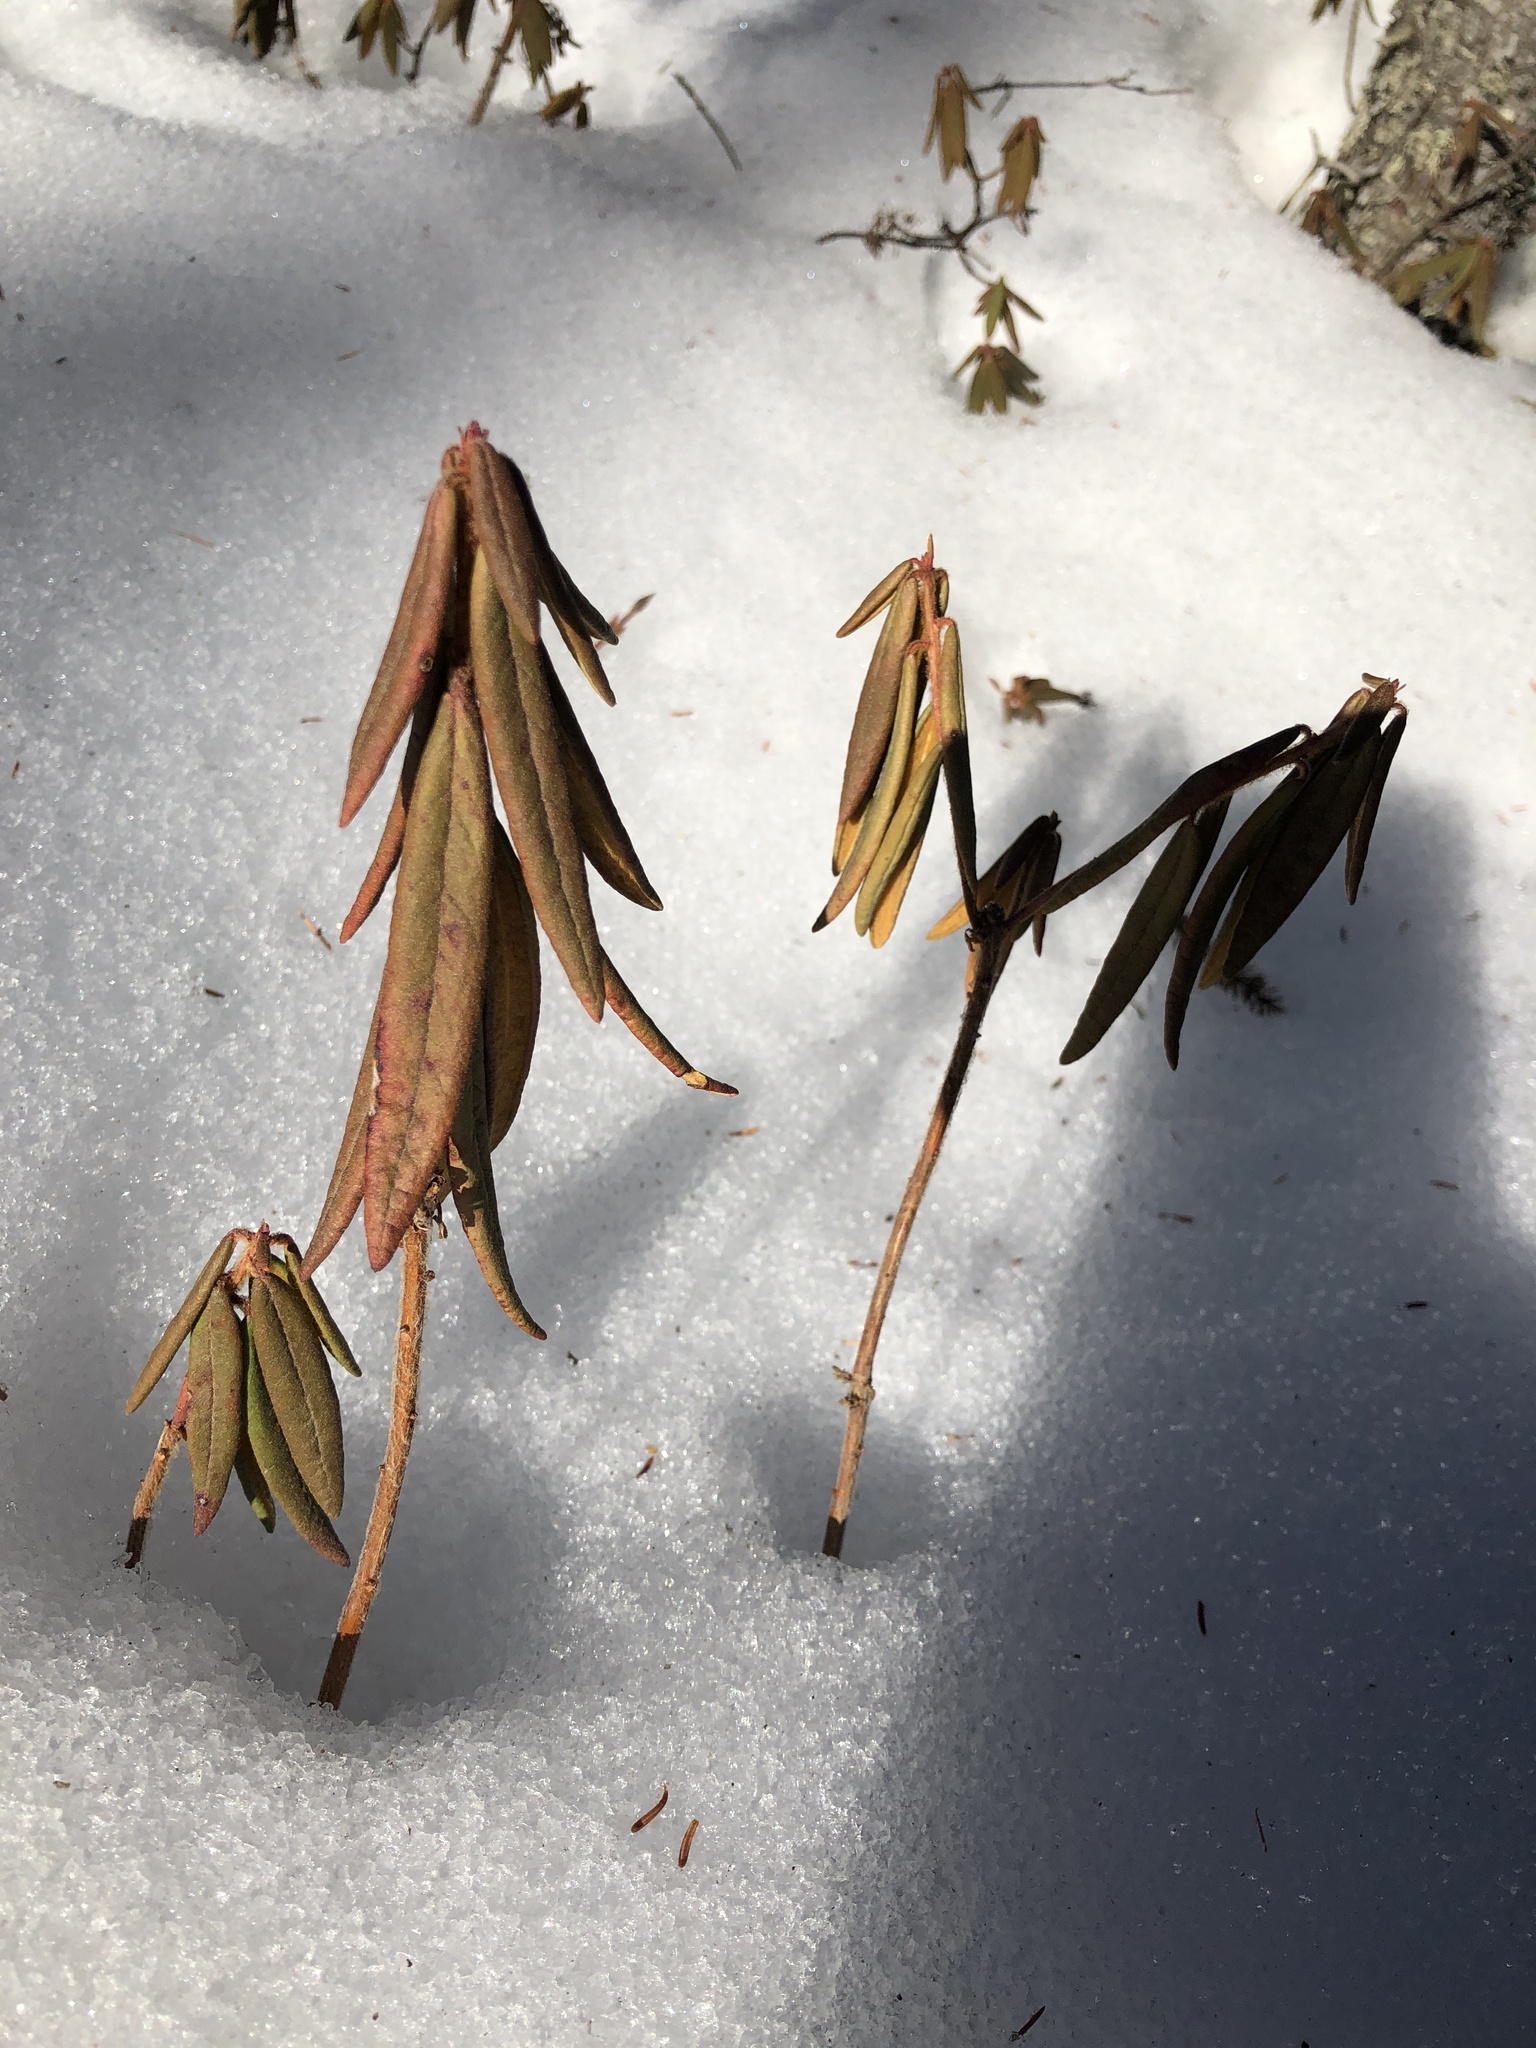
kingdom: Plantae
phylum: Tracheophyta
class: Magnoliopsida
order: Ericales
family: Ericaceae
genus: Rhododendron
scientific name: Rhododendron groenlandicum
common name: Bog labrador tea
